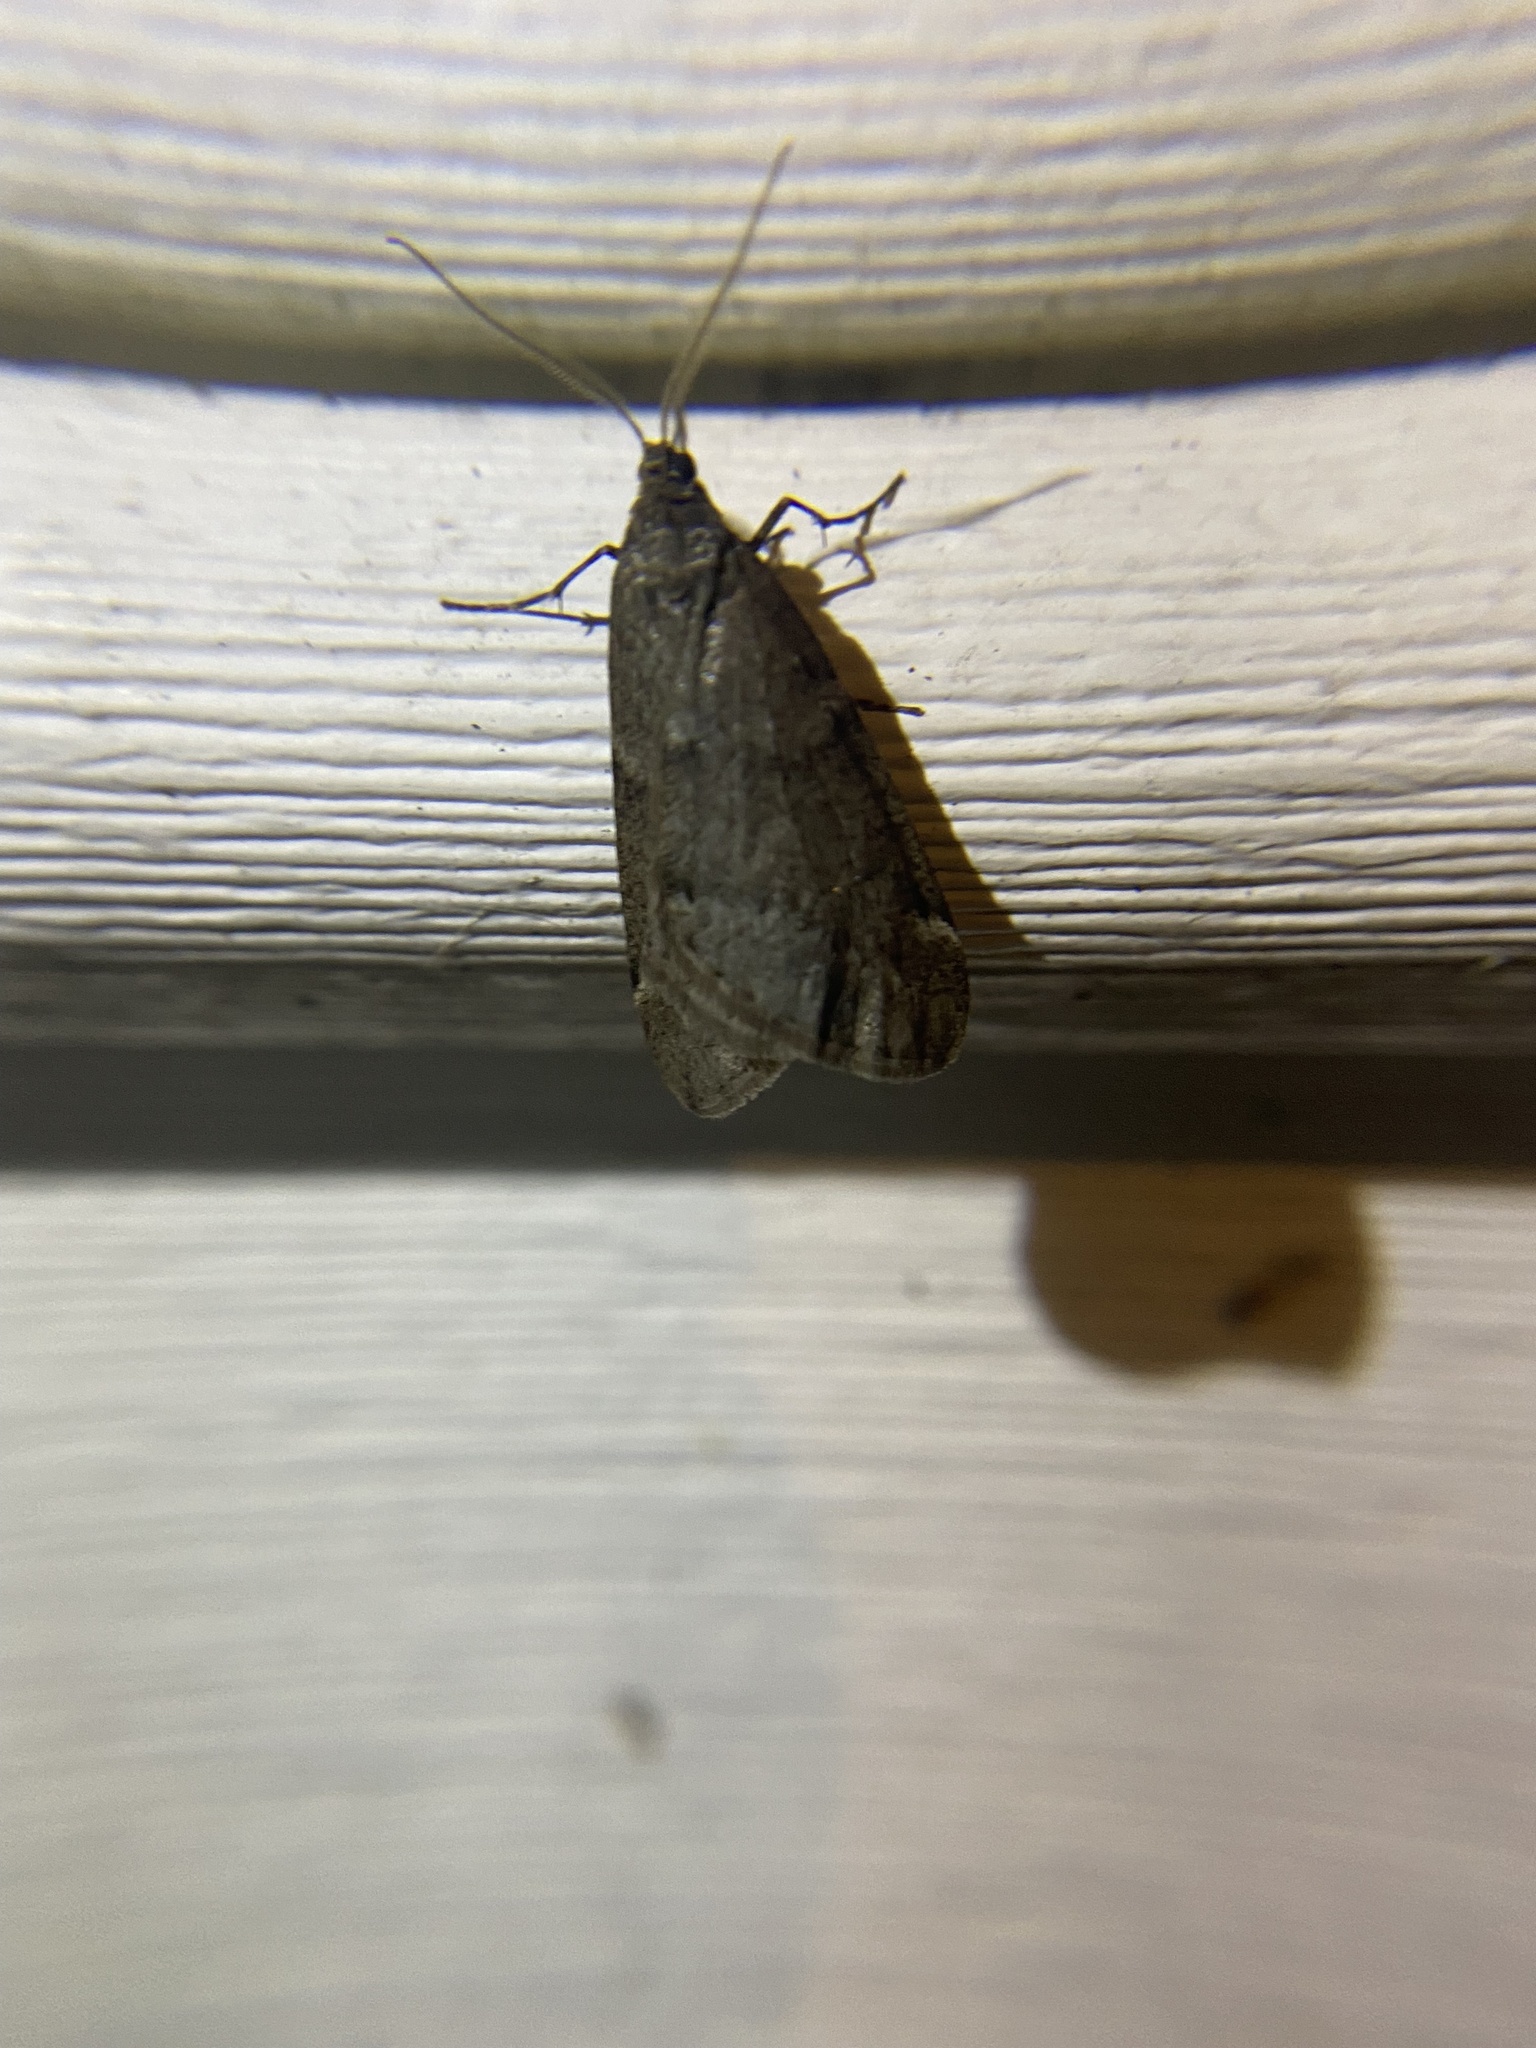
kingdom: Animalia
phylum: Arthropoda
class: Insecta
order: Lepidoptera
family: Geometridae
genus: Alsophila
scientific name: Alsophila pometaria
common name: Fall cankerworm
